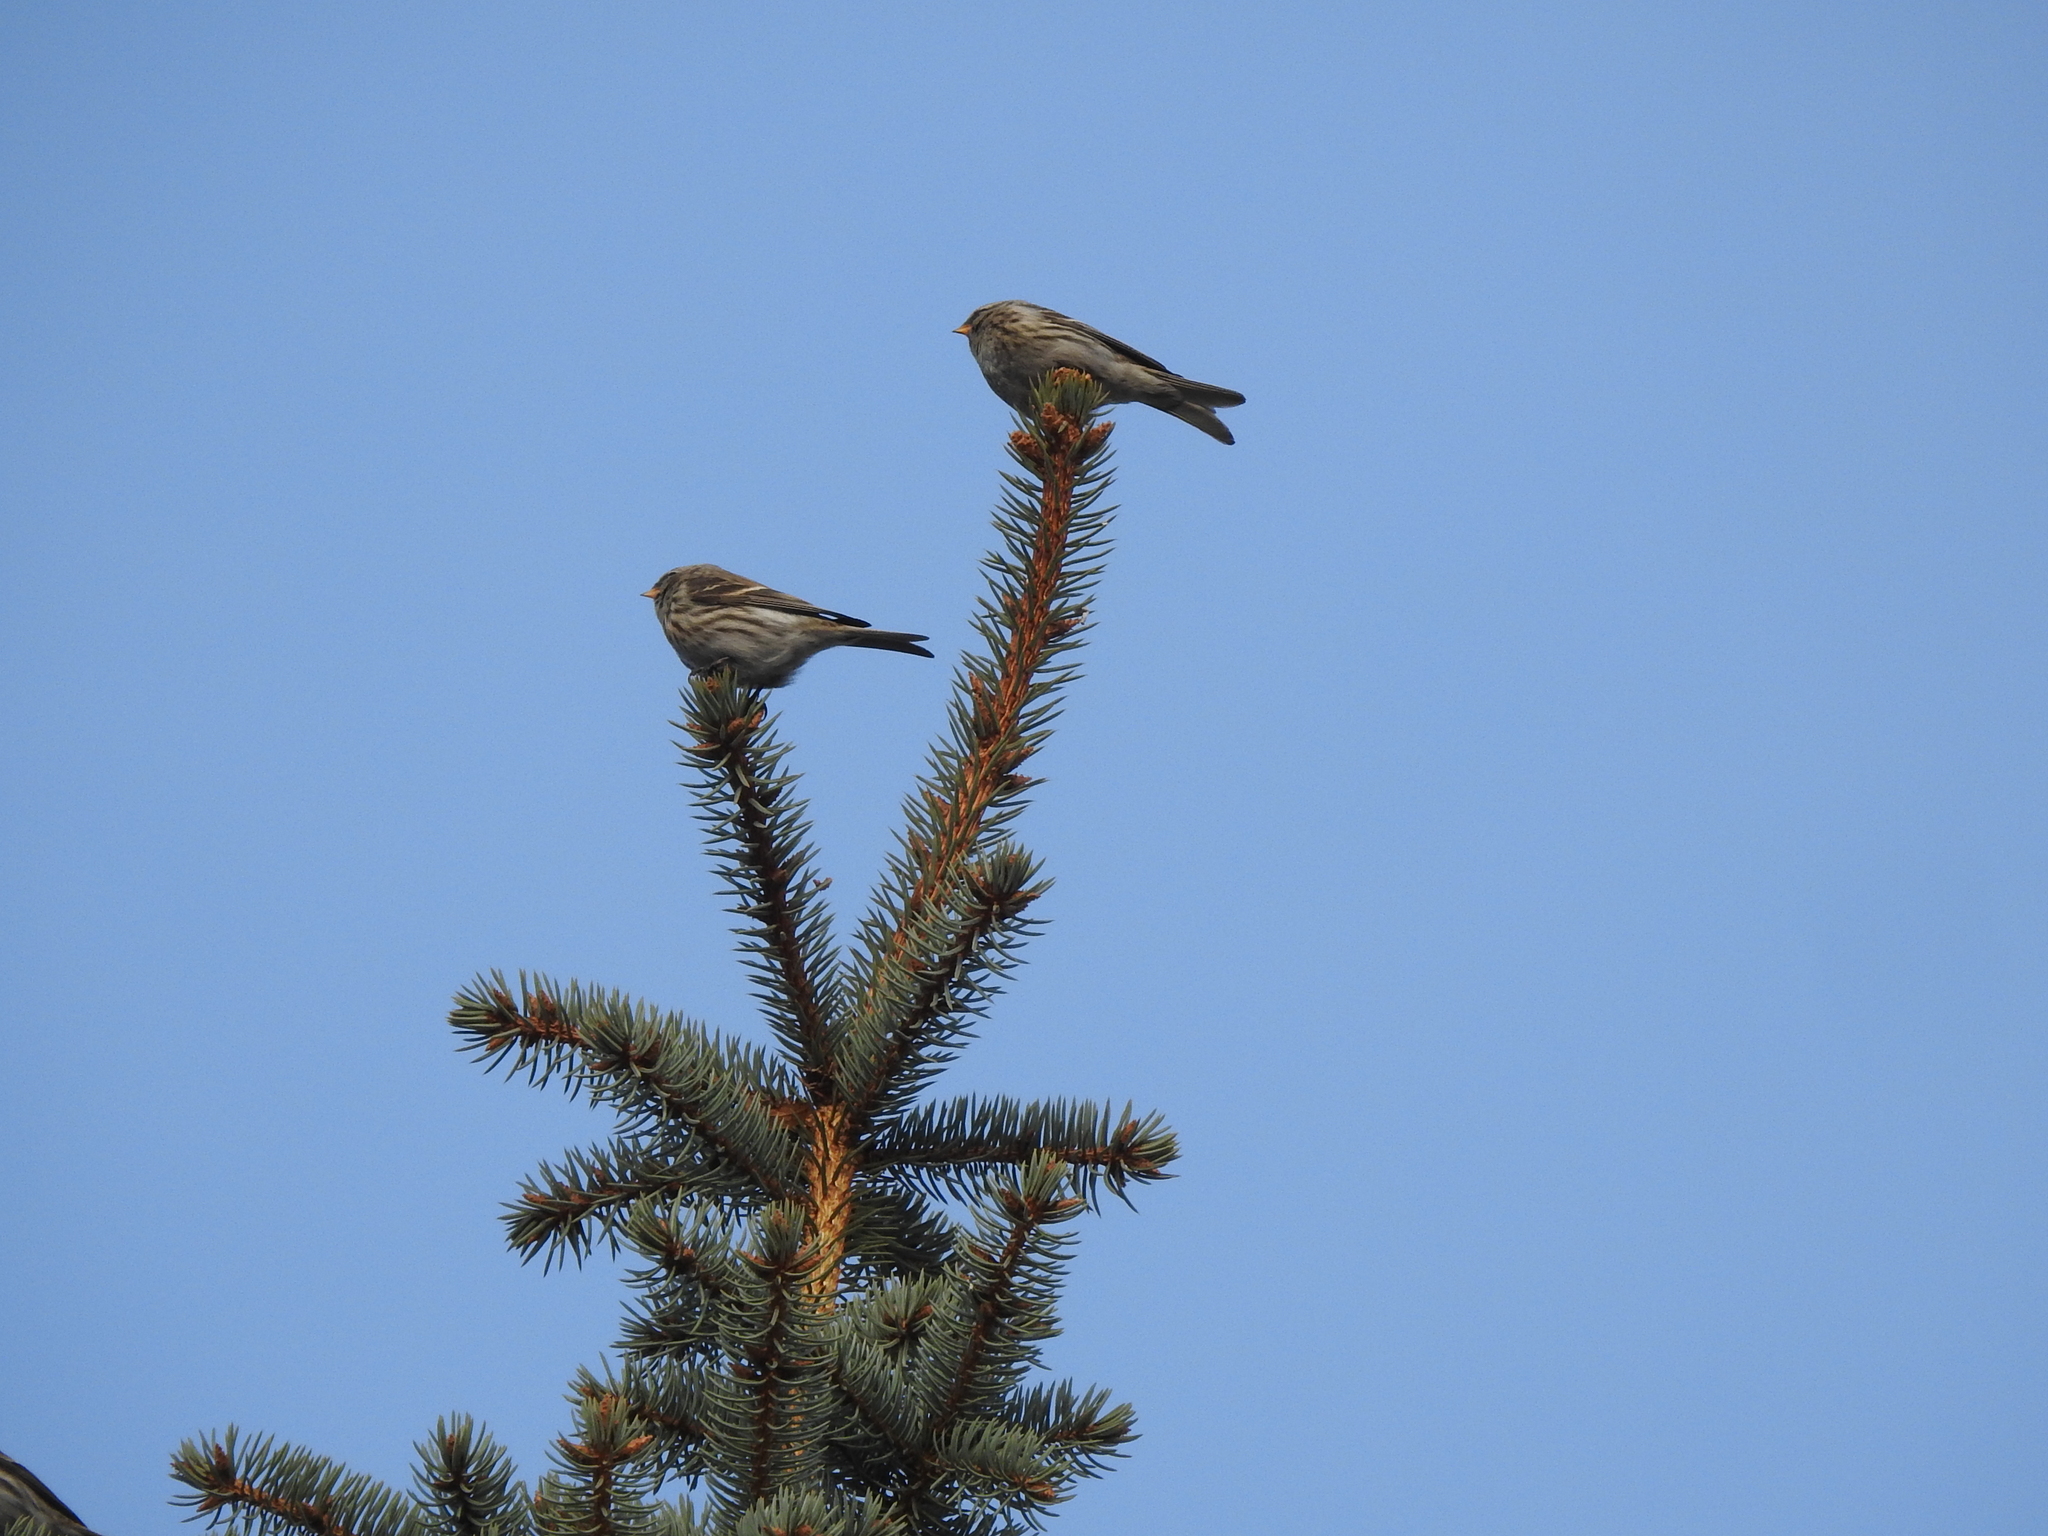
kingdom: Animalia
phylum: Chordata
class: Aves
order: Passeriformes
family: Fringillidae
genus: Acanthis
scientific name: Acanthis flammea
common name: Common redpoll
